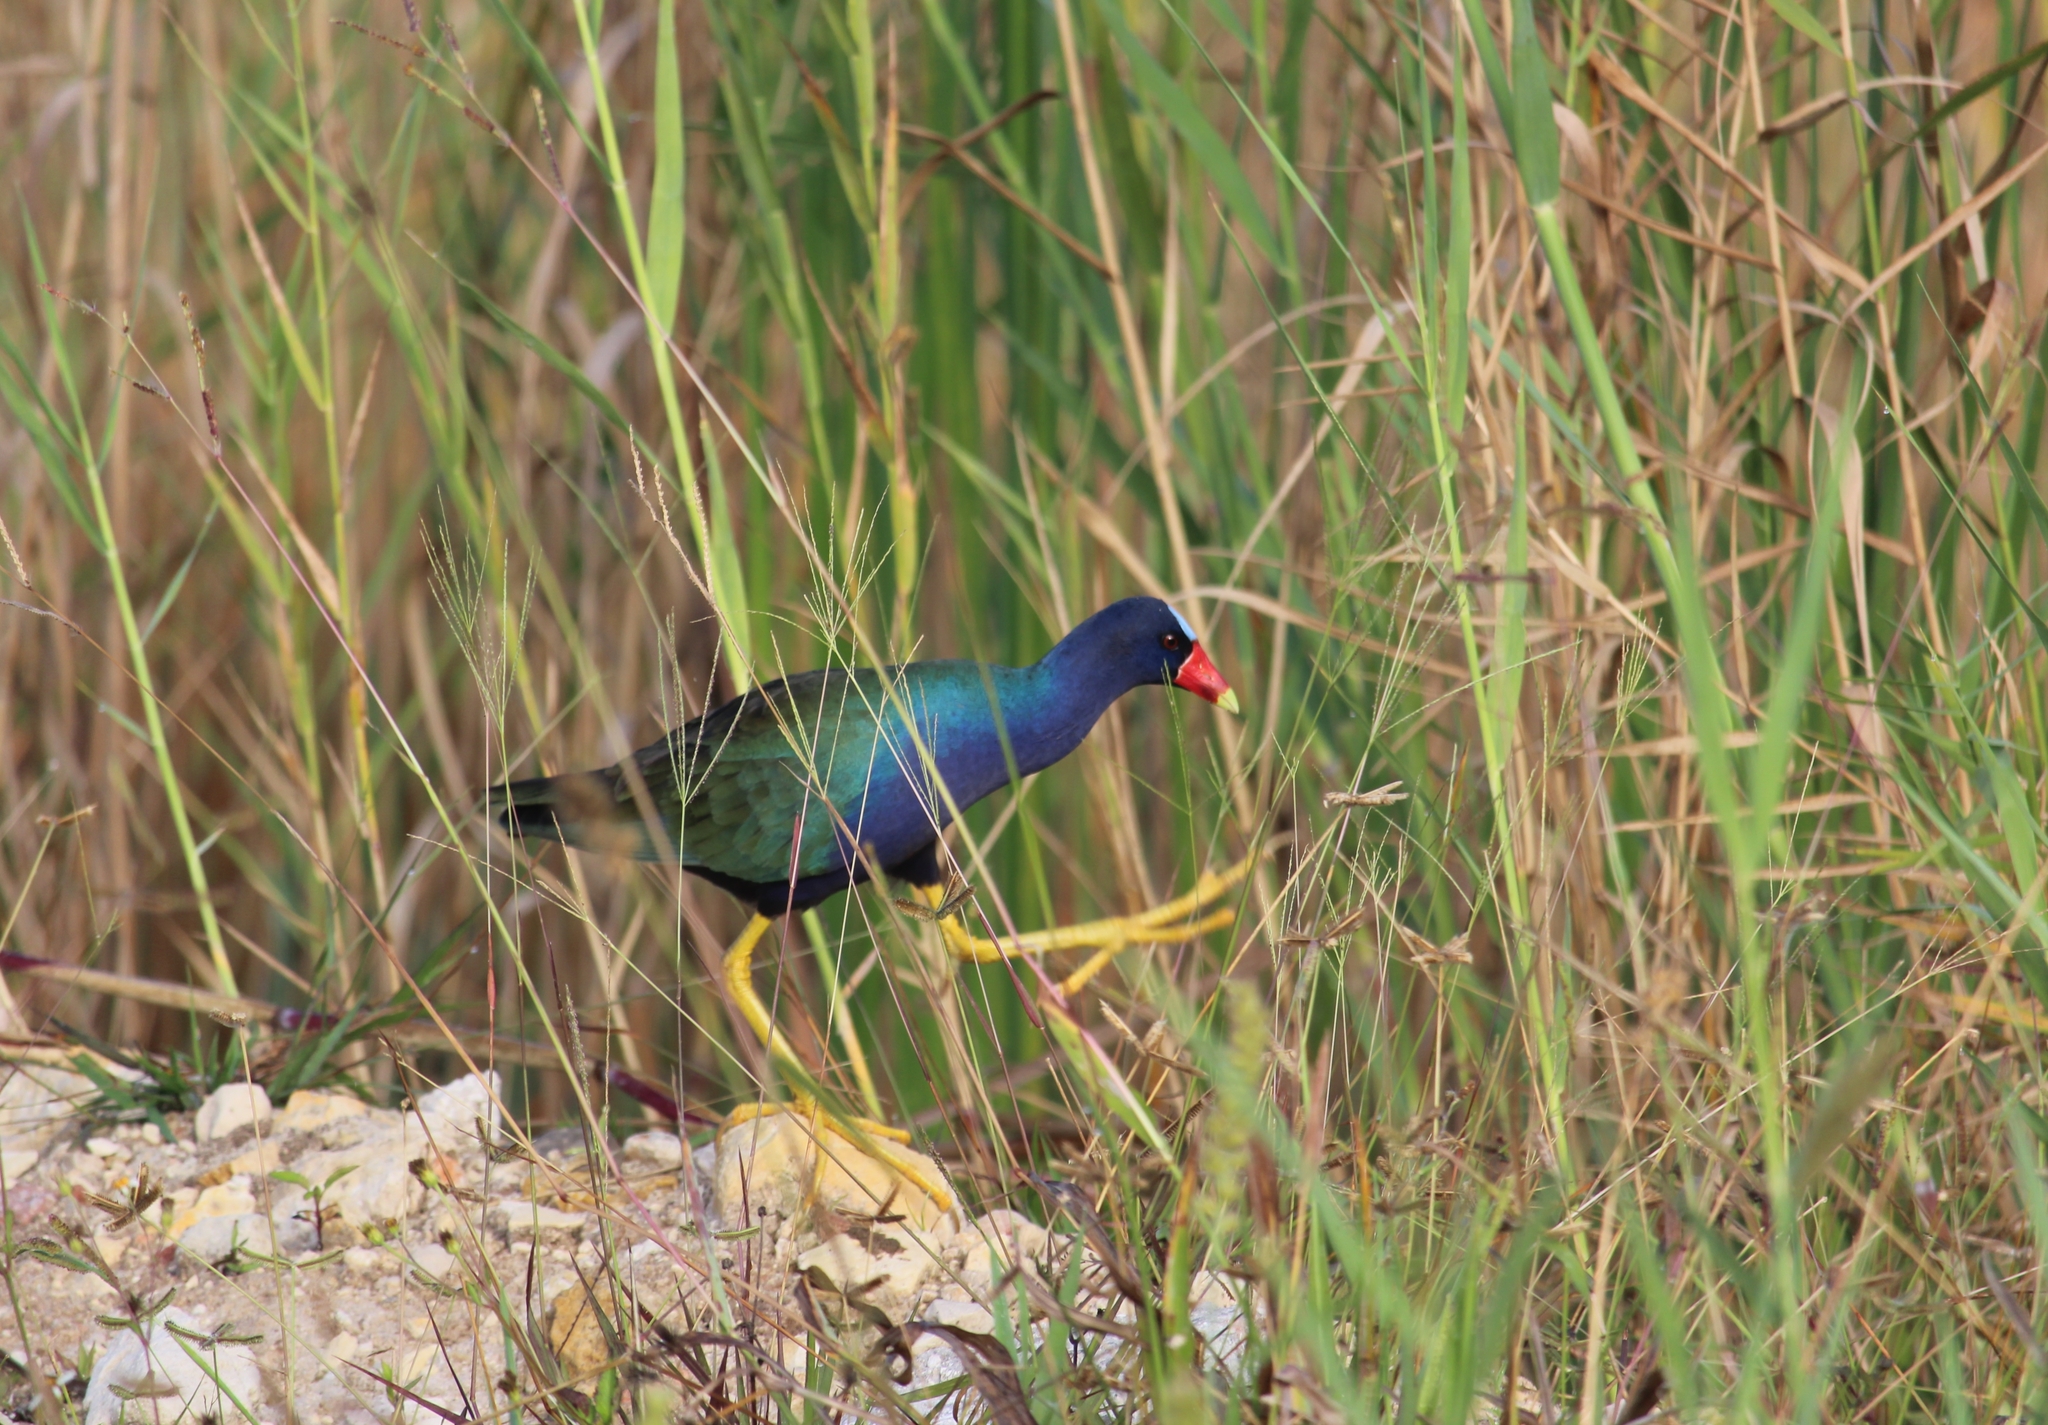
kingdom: Animalia
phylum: Chordata
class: Aves
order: Gruiformes
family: Rallidae
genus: Porphyrio
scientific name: Porphyrio martinica
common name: Purple gallinule
